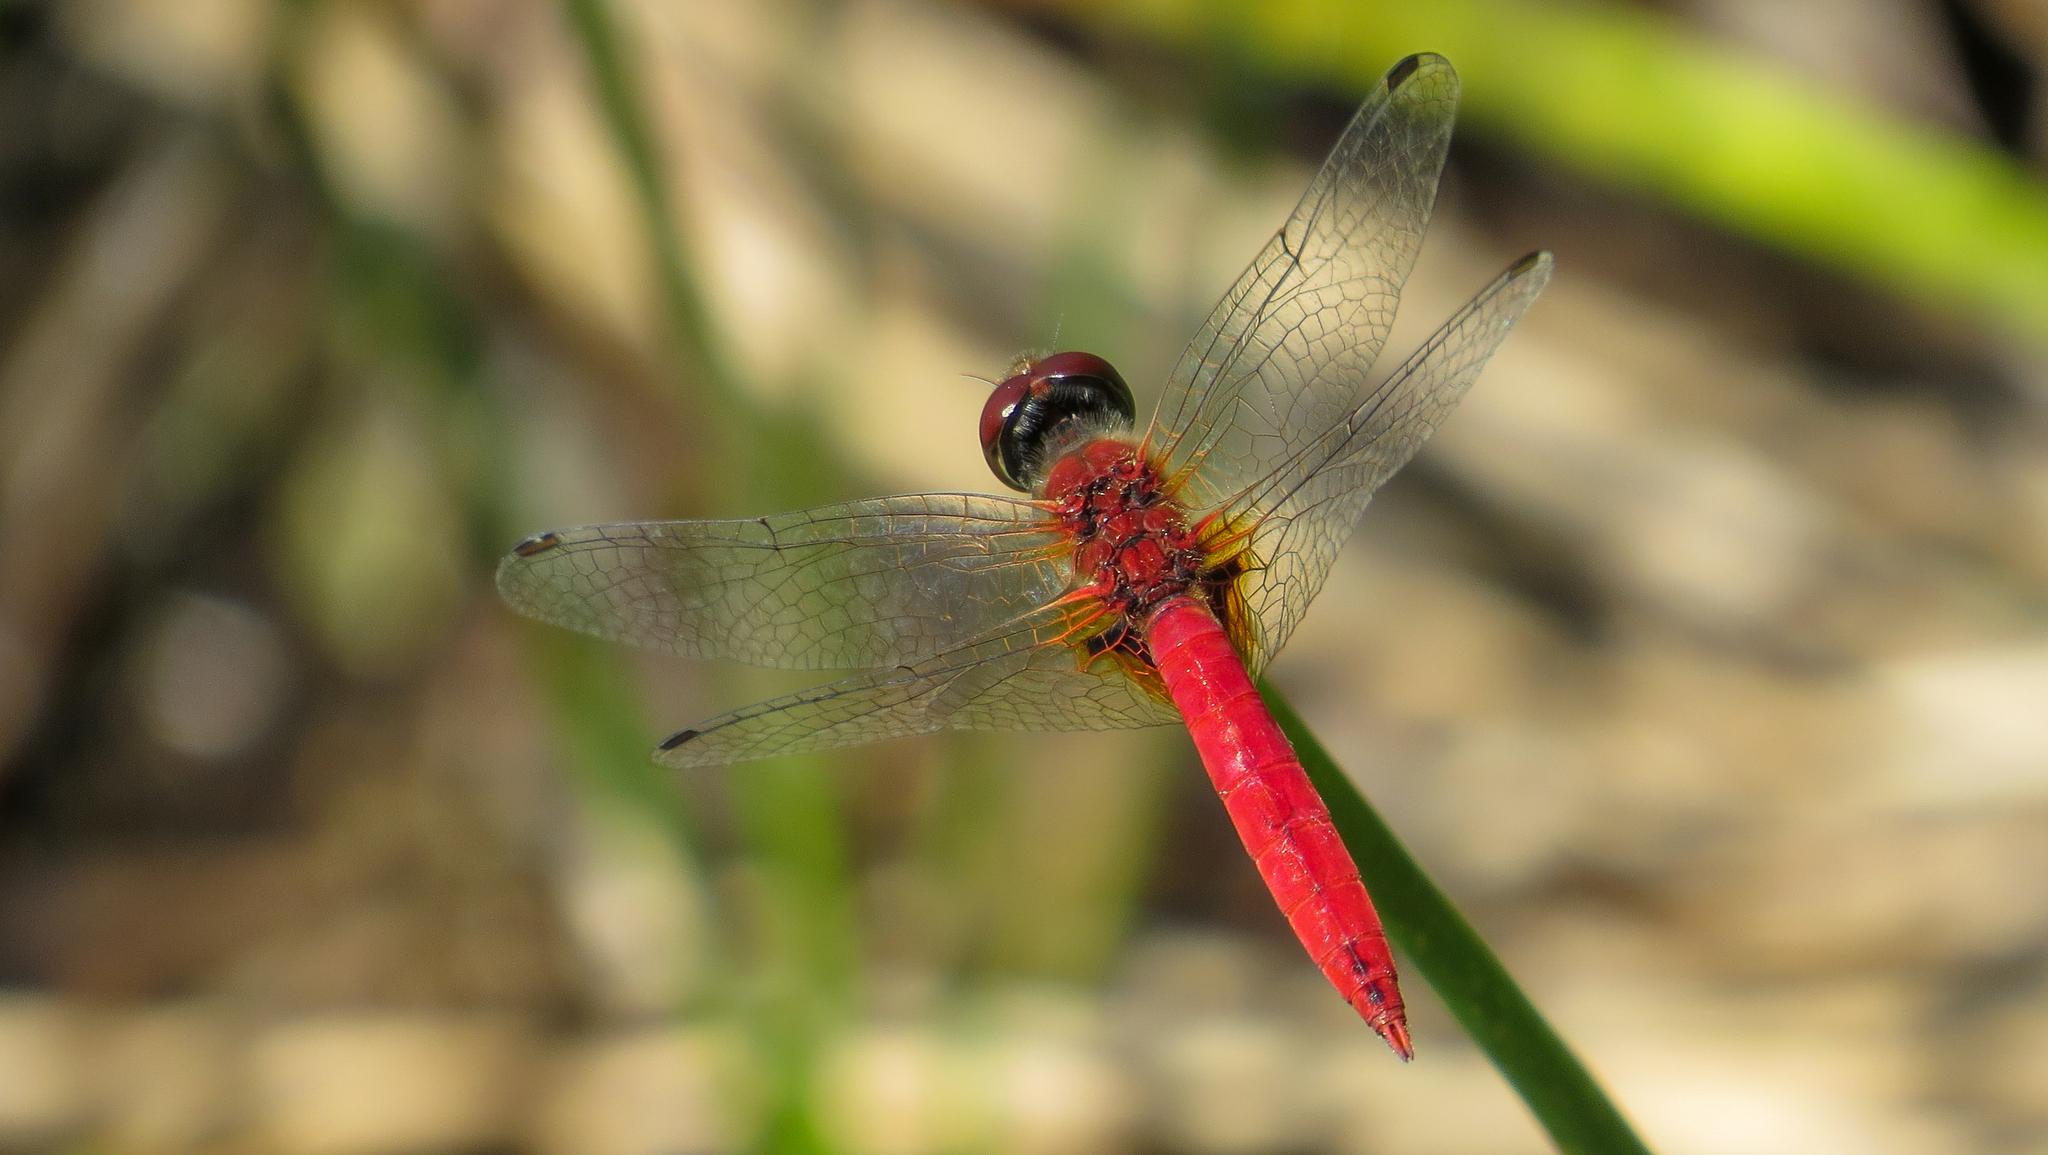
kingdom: Animalia
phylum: Arthropoda
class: Insecta
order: Odonata
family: Libellulidae
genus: Aethriamanta
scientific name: Aethriamanta nymphaeae
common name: L-spot basker
